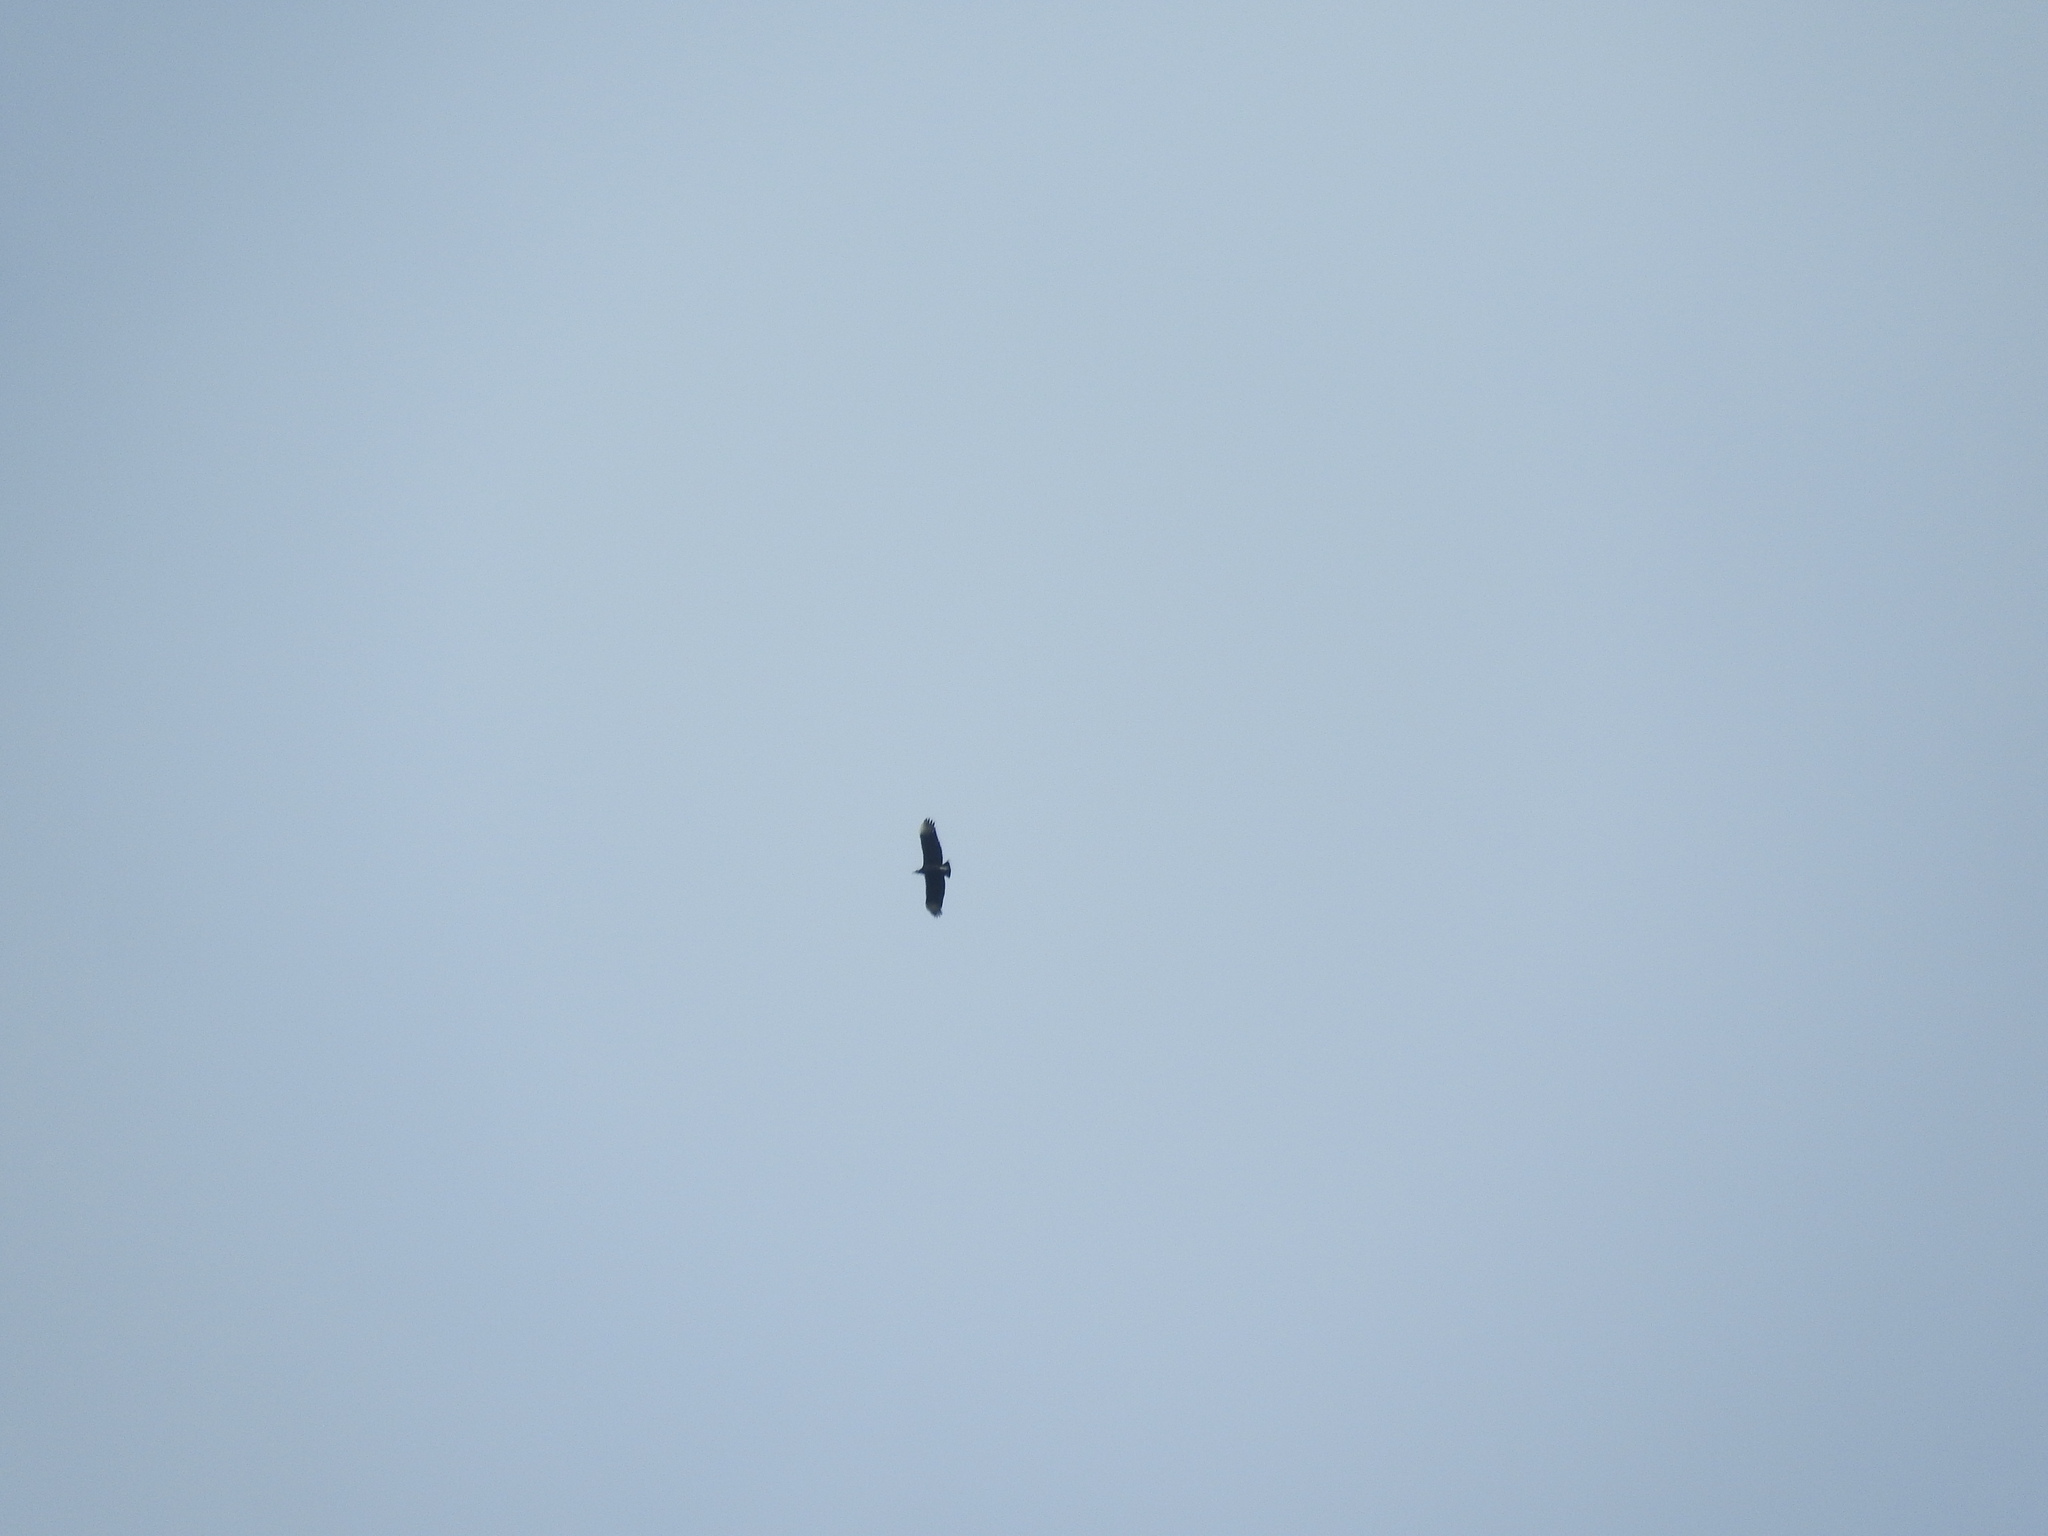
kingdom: Animalia
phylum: Chordata
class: Aves
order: Accipitriformes
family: Cathartidae
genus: Coragyps
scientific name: Coragyps atratus
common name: Black vulture
